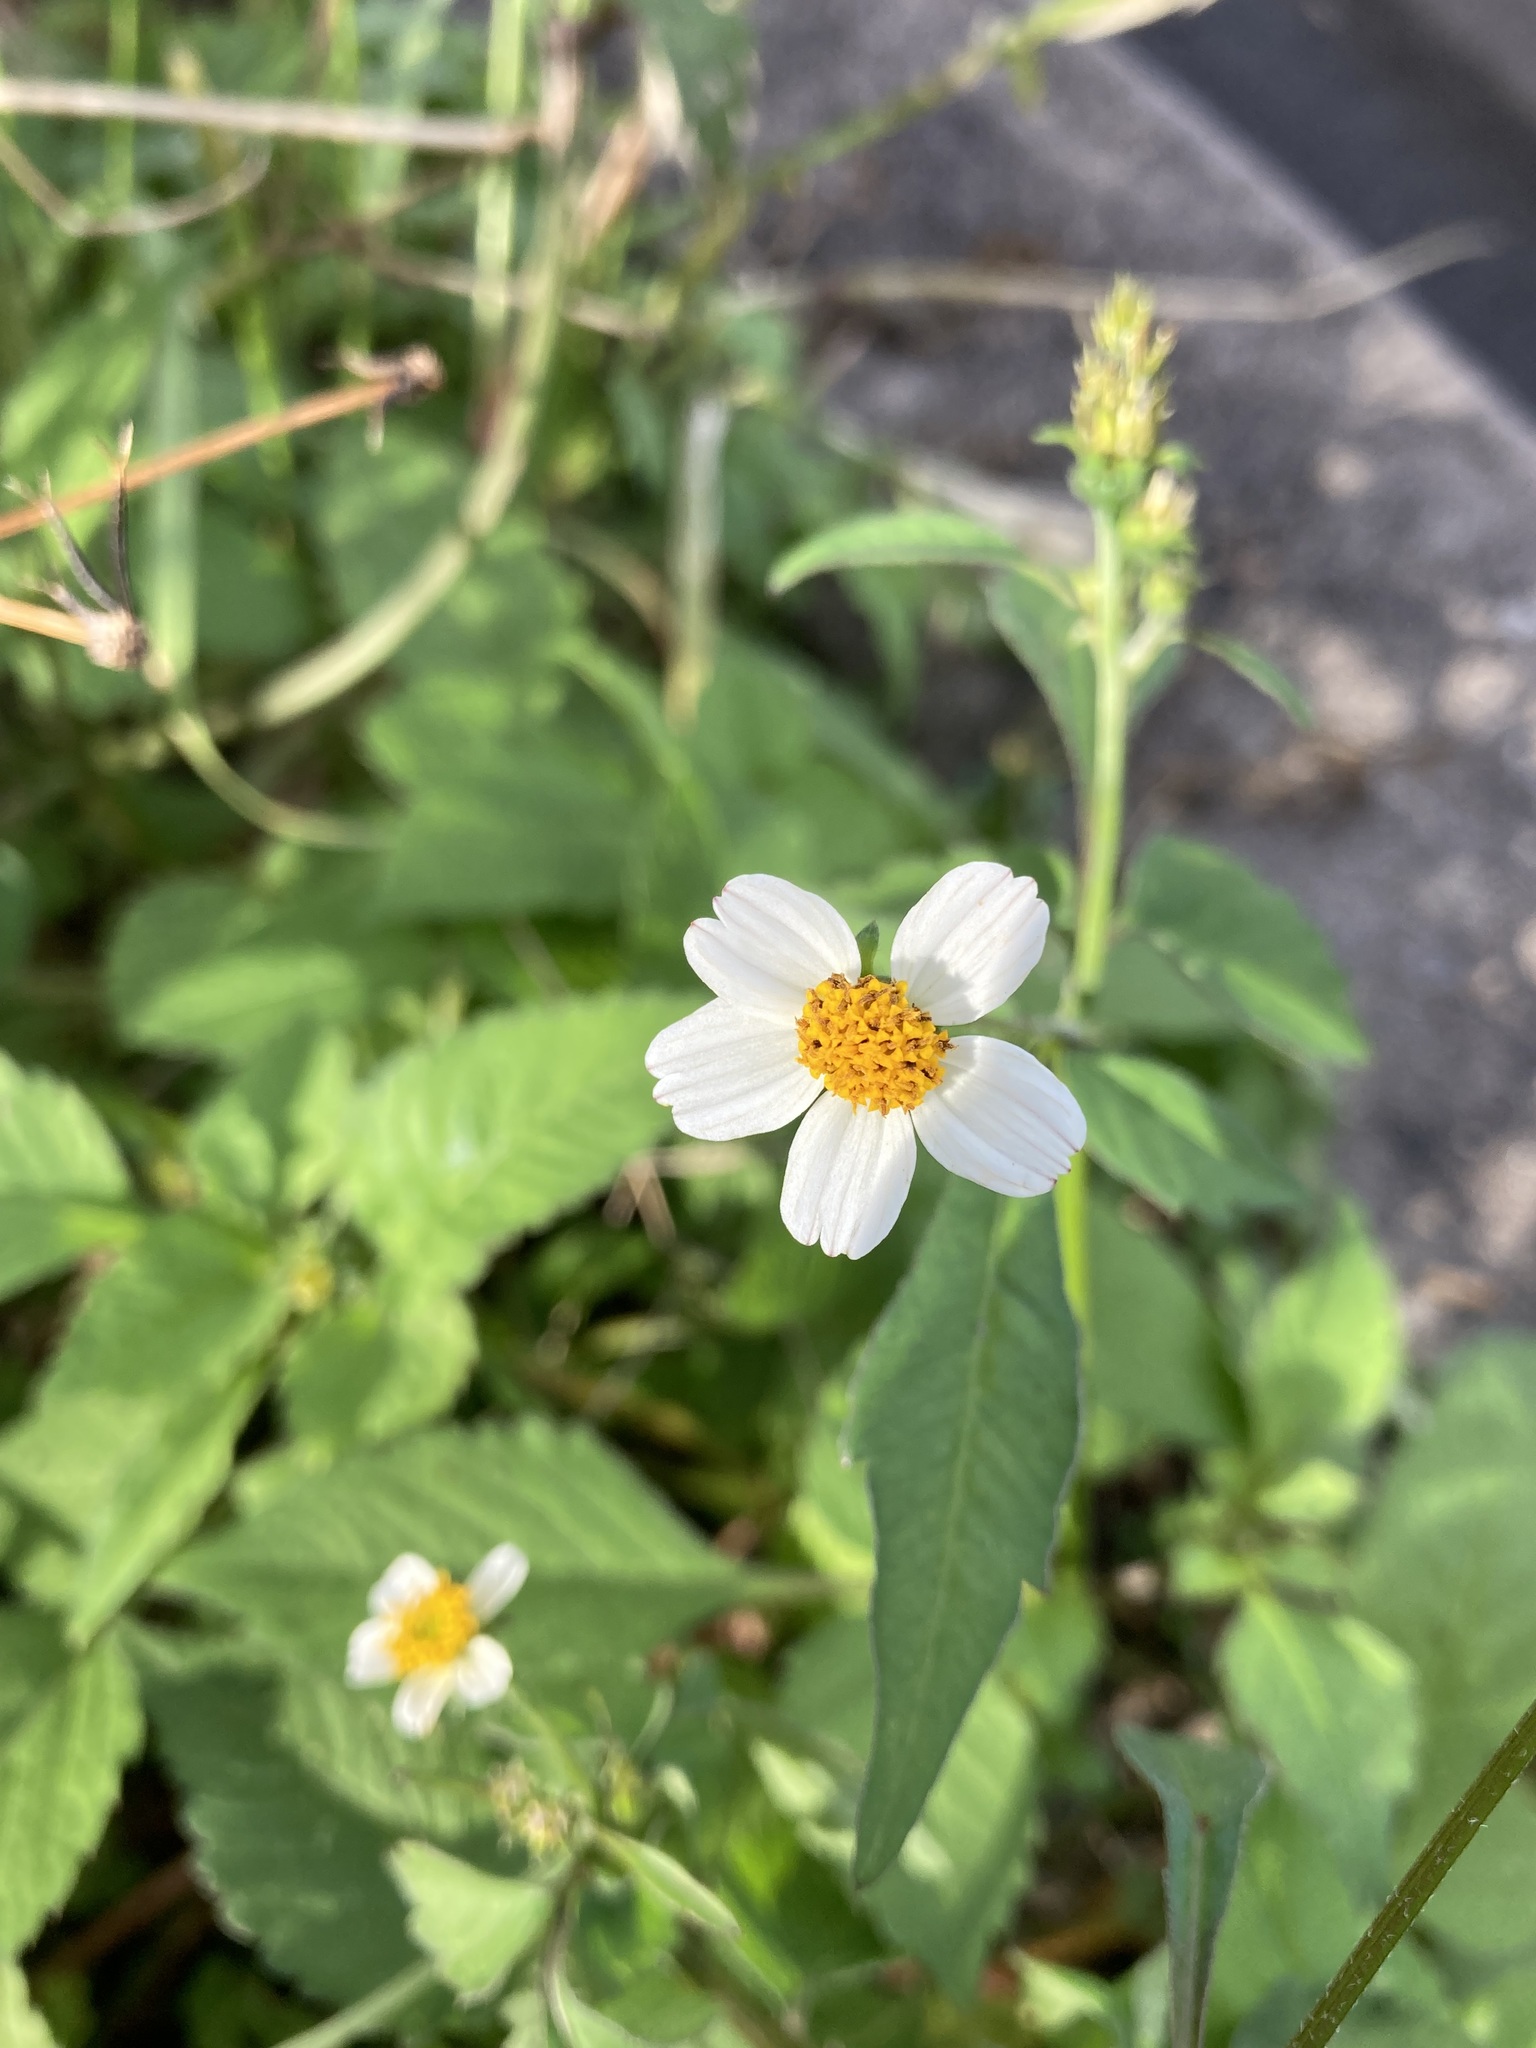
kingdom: Plantae
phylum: Tracheophyta
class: Magnoliopsida
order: Asterales
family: Asteraceae
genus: Bidens
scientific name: Bidens alba
